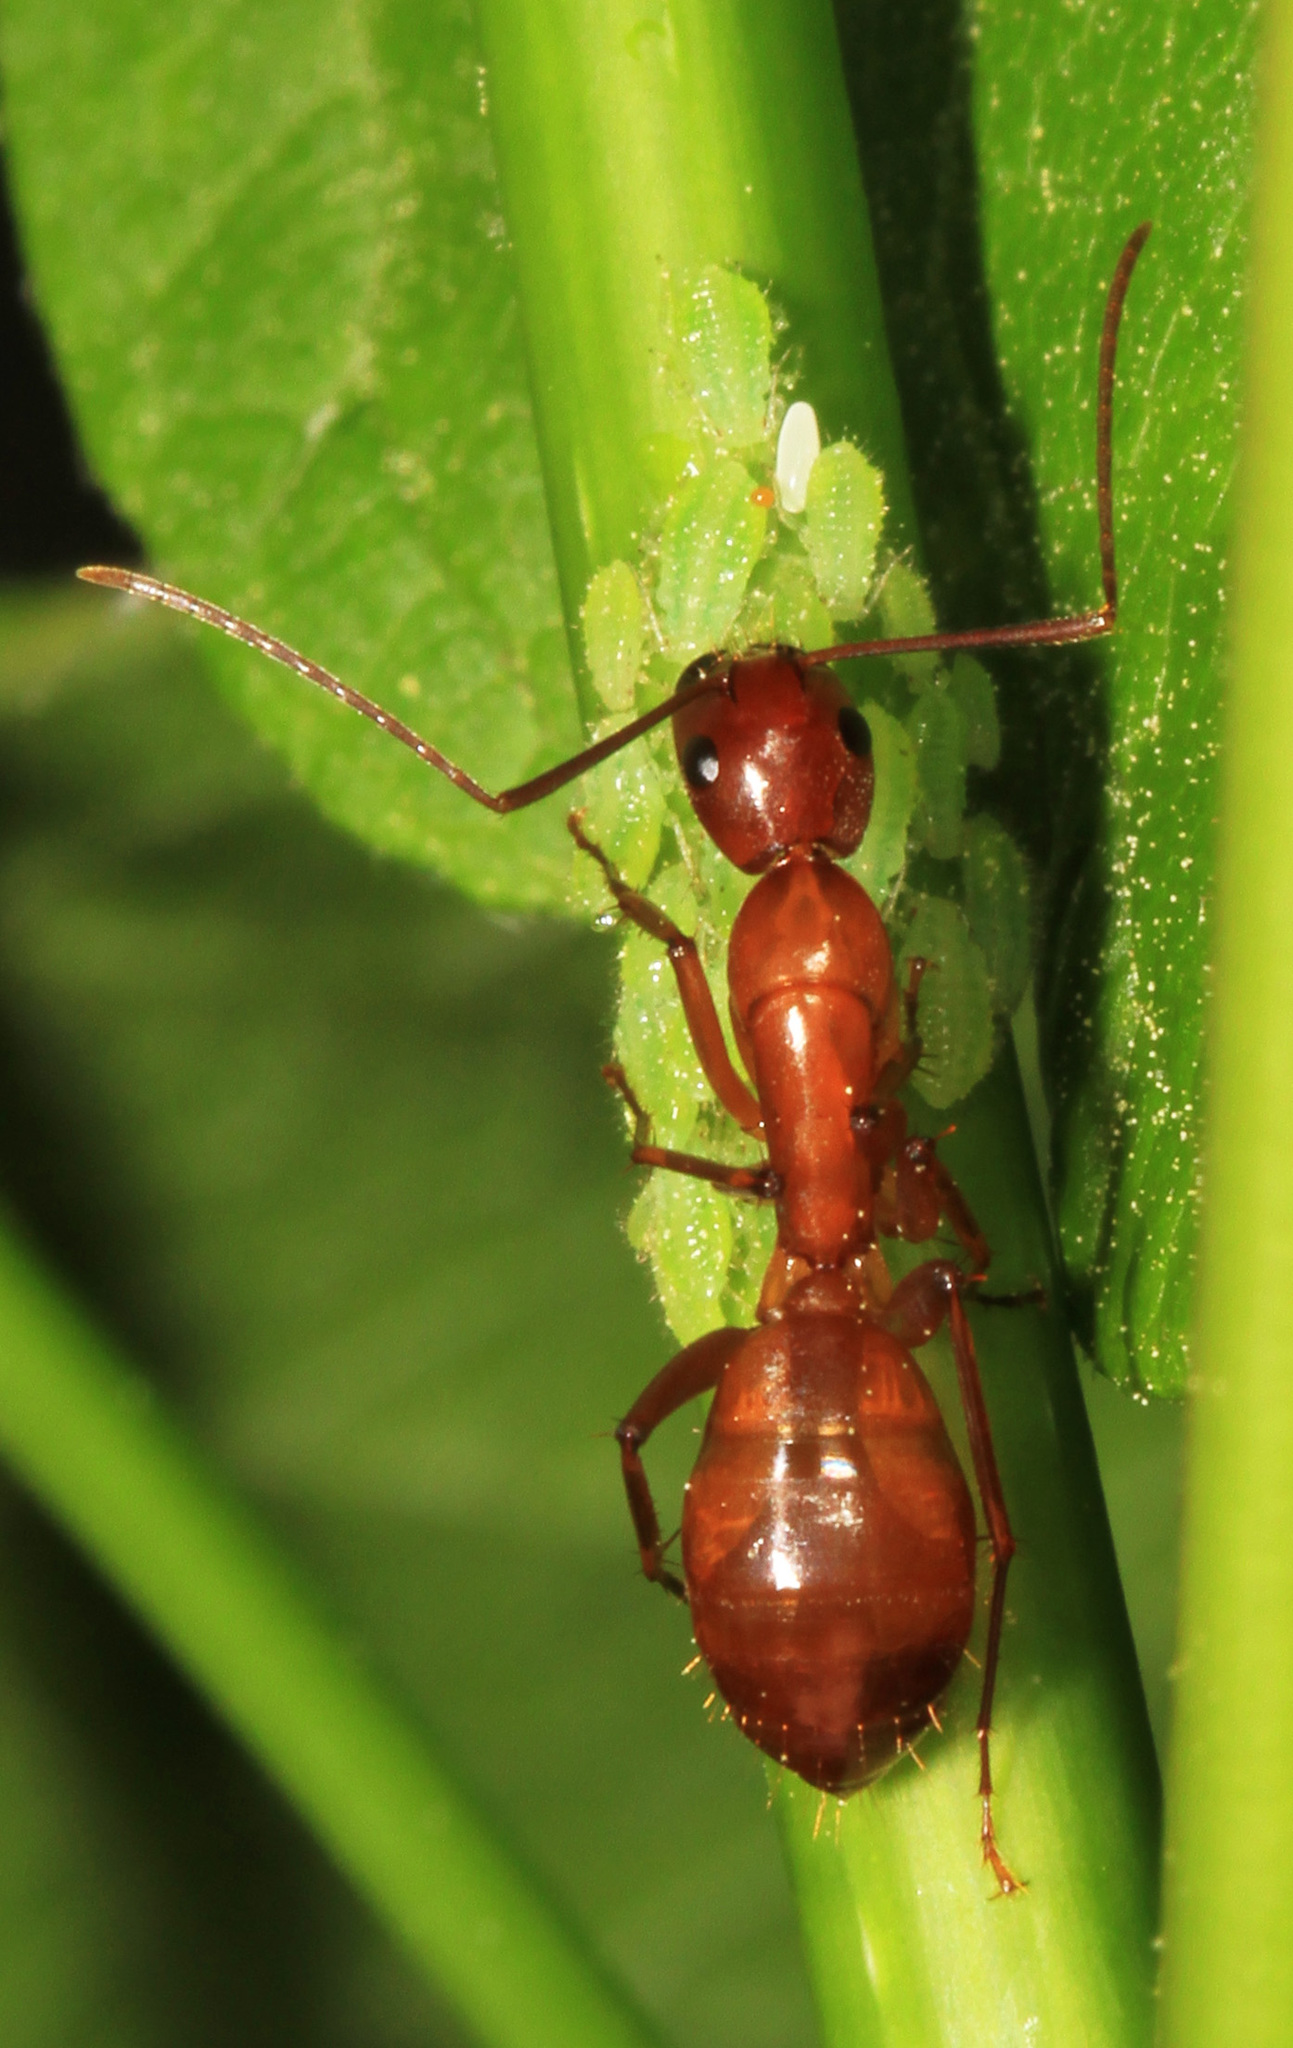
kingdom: Animalia
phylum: Arthropoda
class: Insecta
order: Hymenoptera
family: Formicidae
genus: Camponotus
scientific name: Camponotus castaneus
